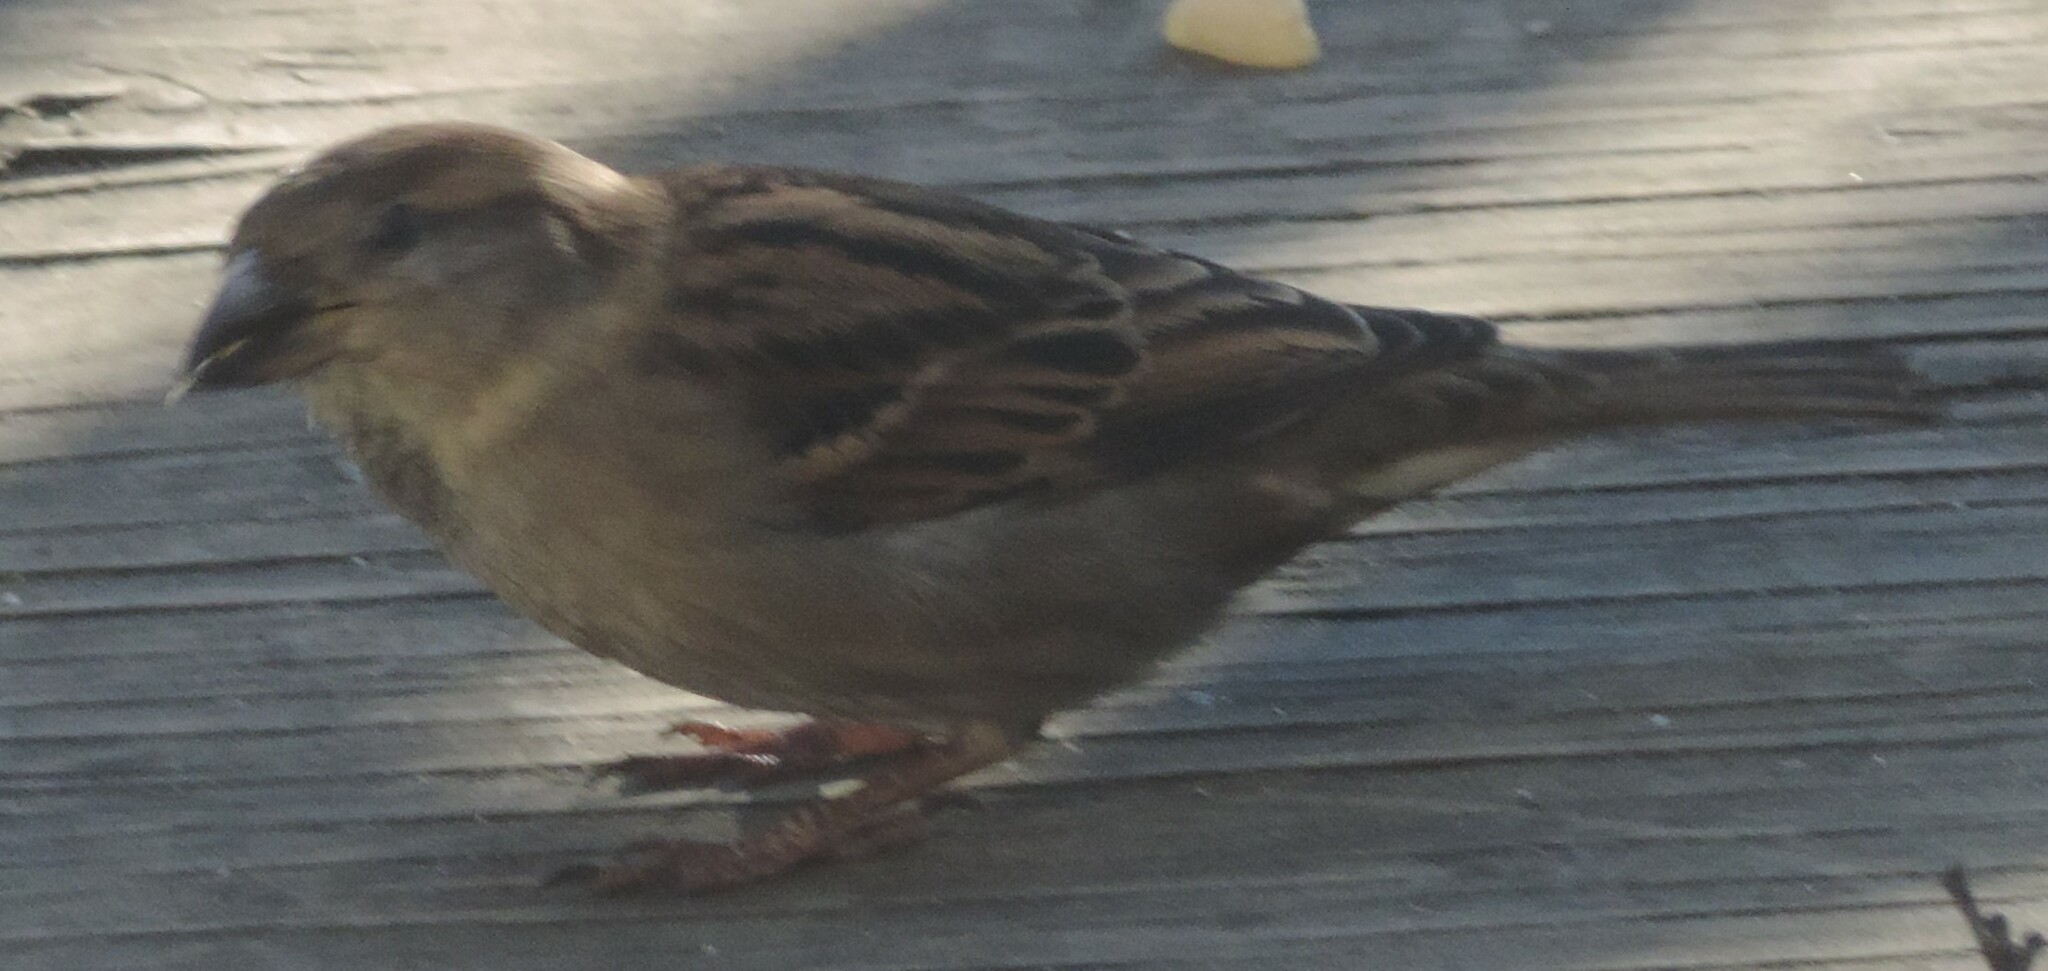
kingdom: Animalia
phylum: Chordata
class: Aves
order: Passeriformes
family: Passeridae
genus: Passer
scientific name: Passer domesticus
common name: House sparrow
